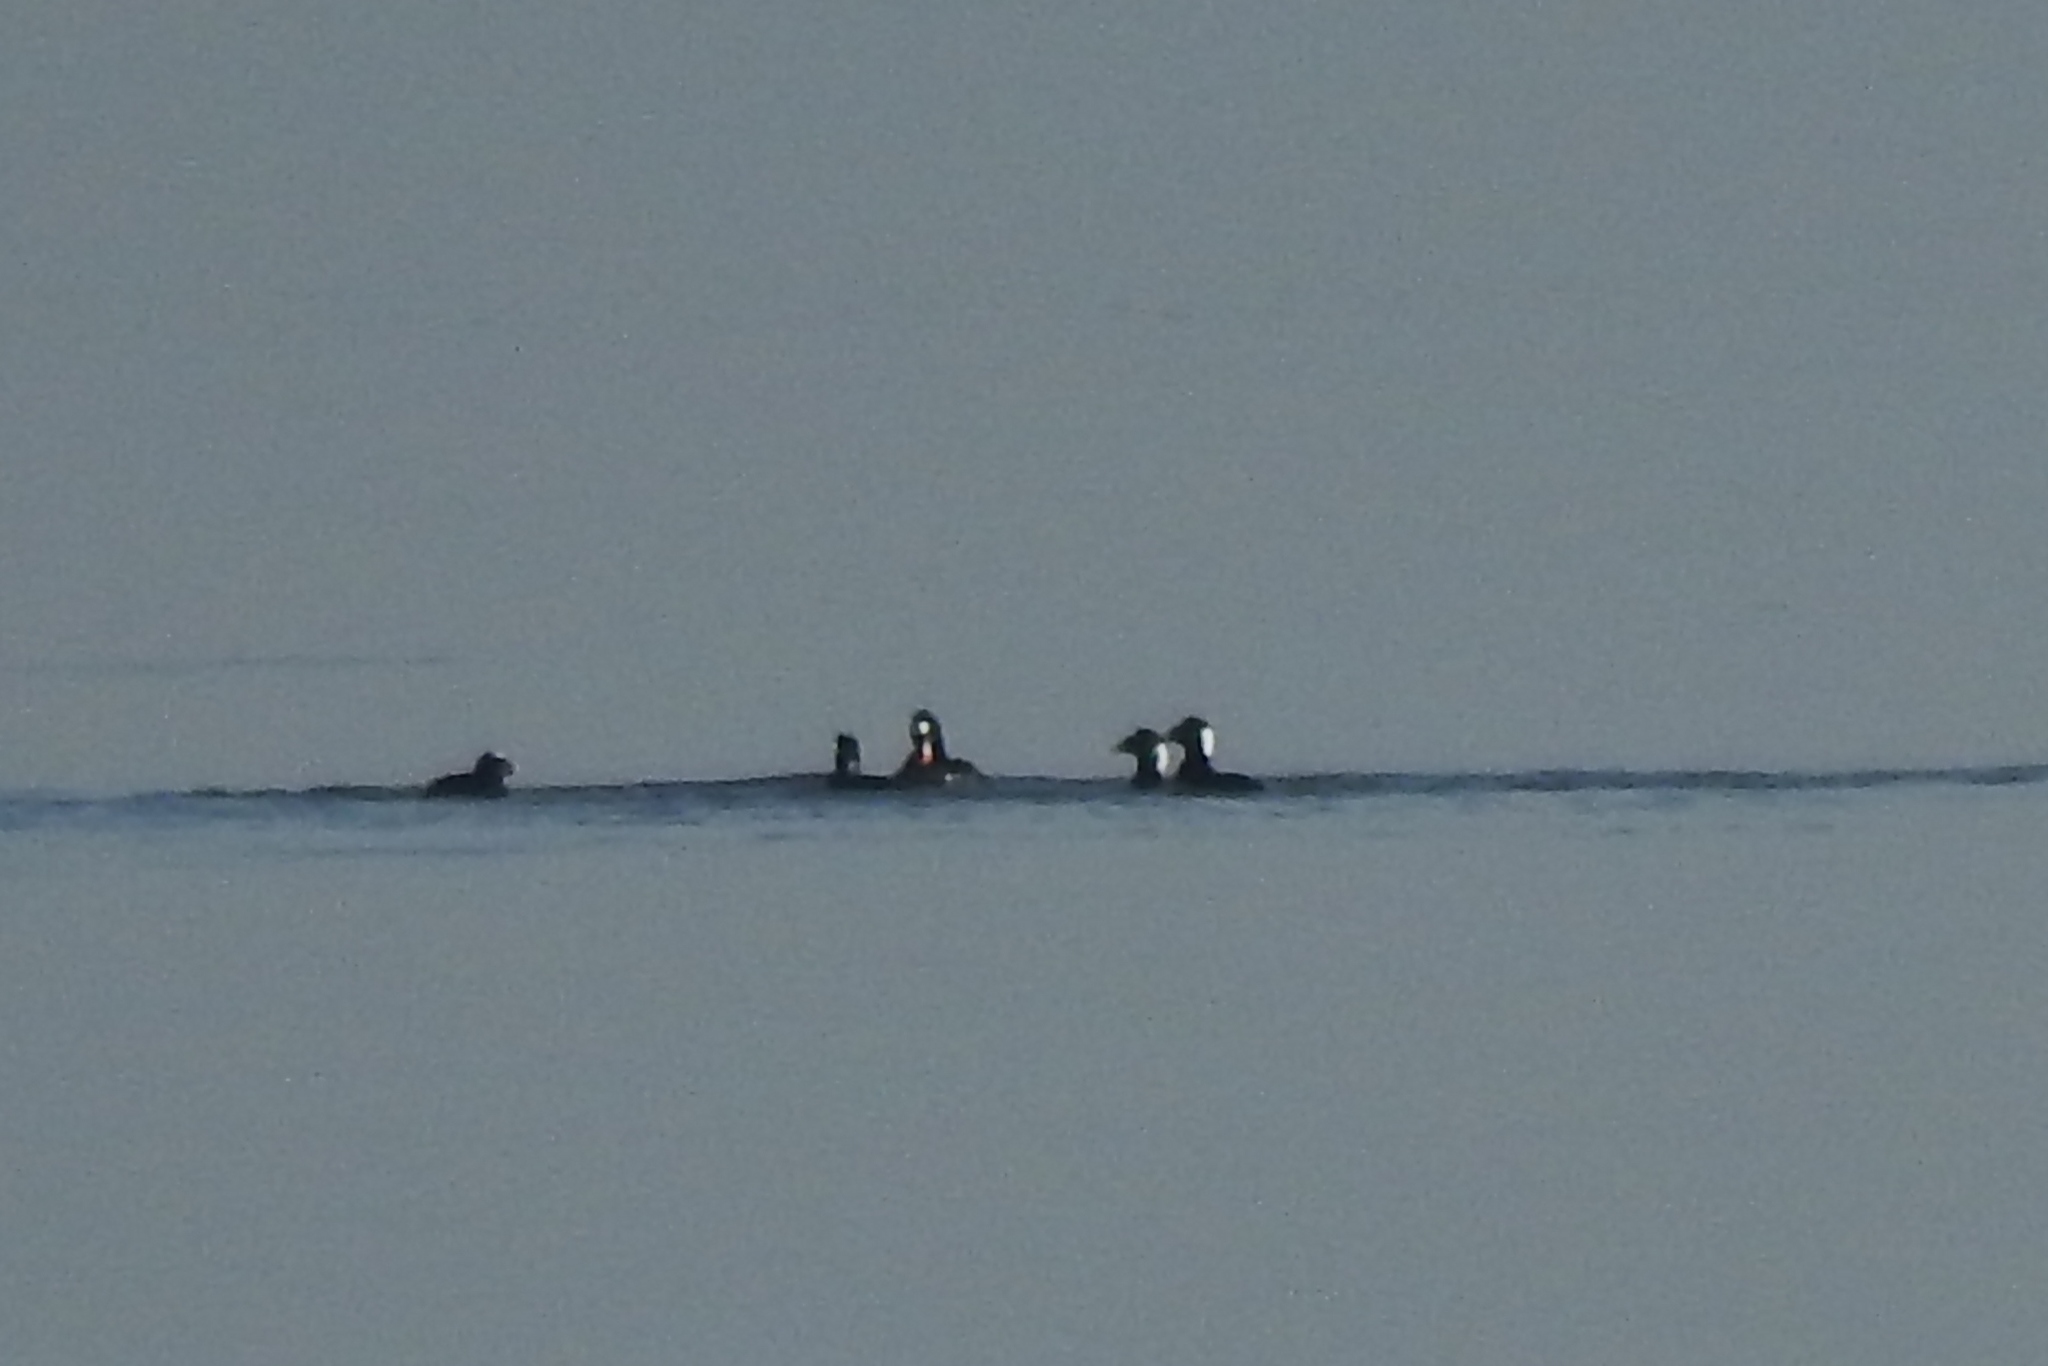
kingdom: Animalia
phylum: Chordata
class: Aves
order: Anseriformes
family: Anatidae
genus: Melanitta
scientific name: Melanitta perspicillata
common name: Surf scoter
